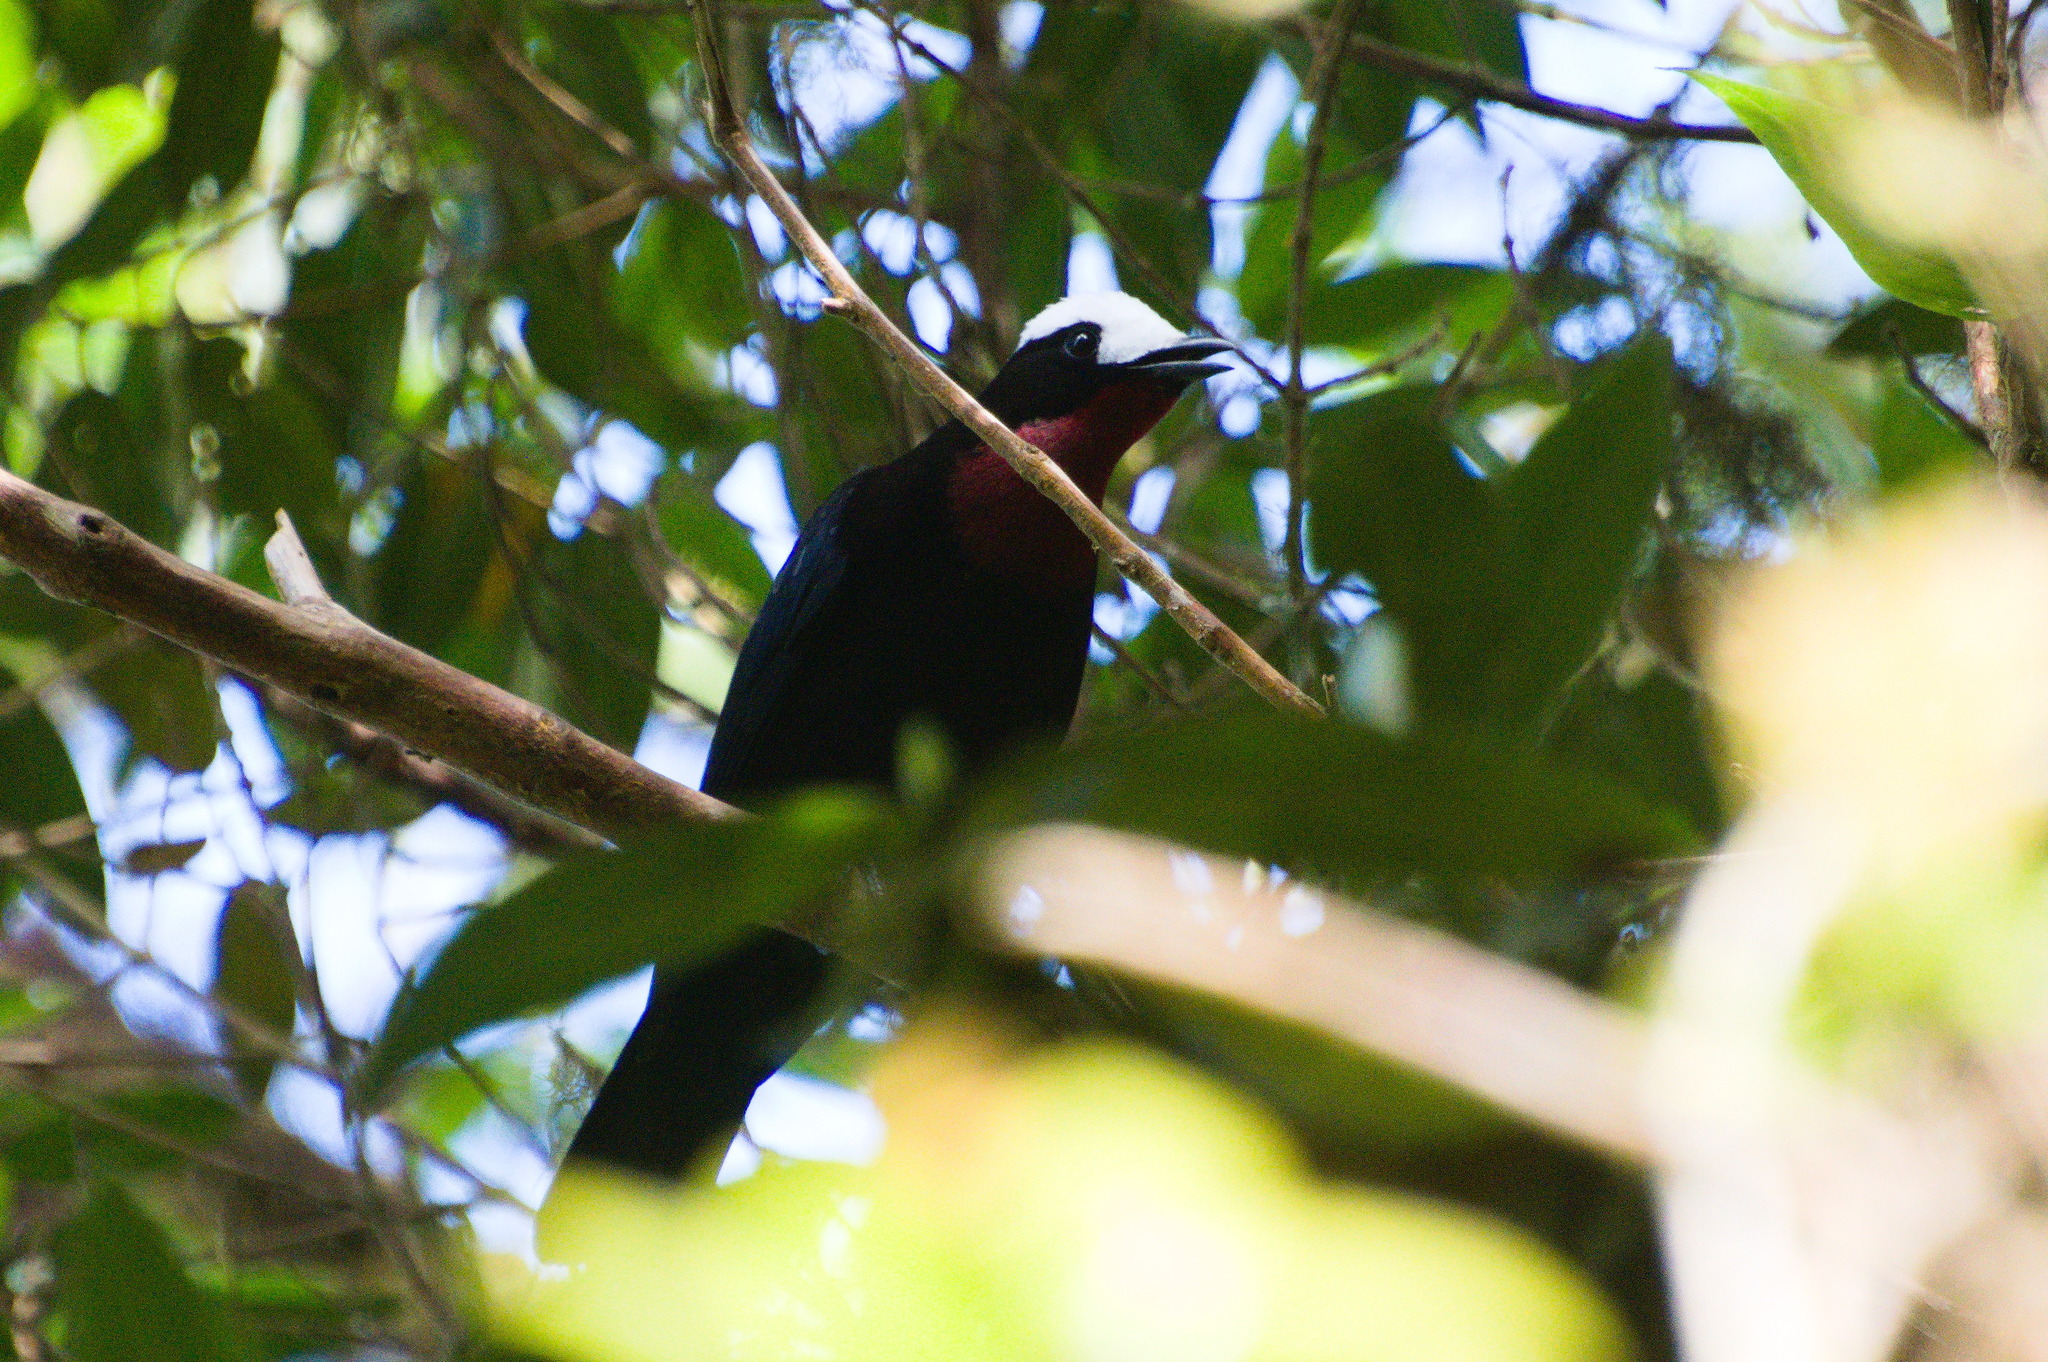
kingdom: Animalia
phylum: Chordata
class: Aves
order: Passeriformes
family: Thraupidae
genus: Sericossypha
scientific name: Sericossypha albocristata
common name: White-capped tanager
